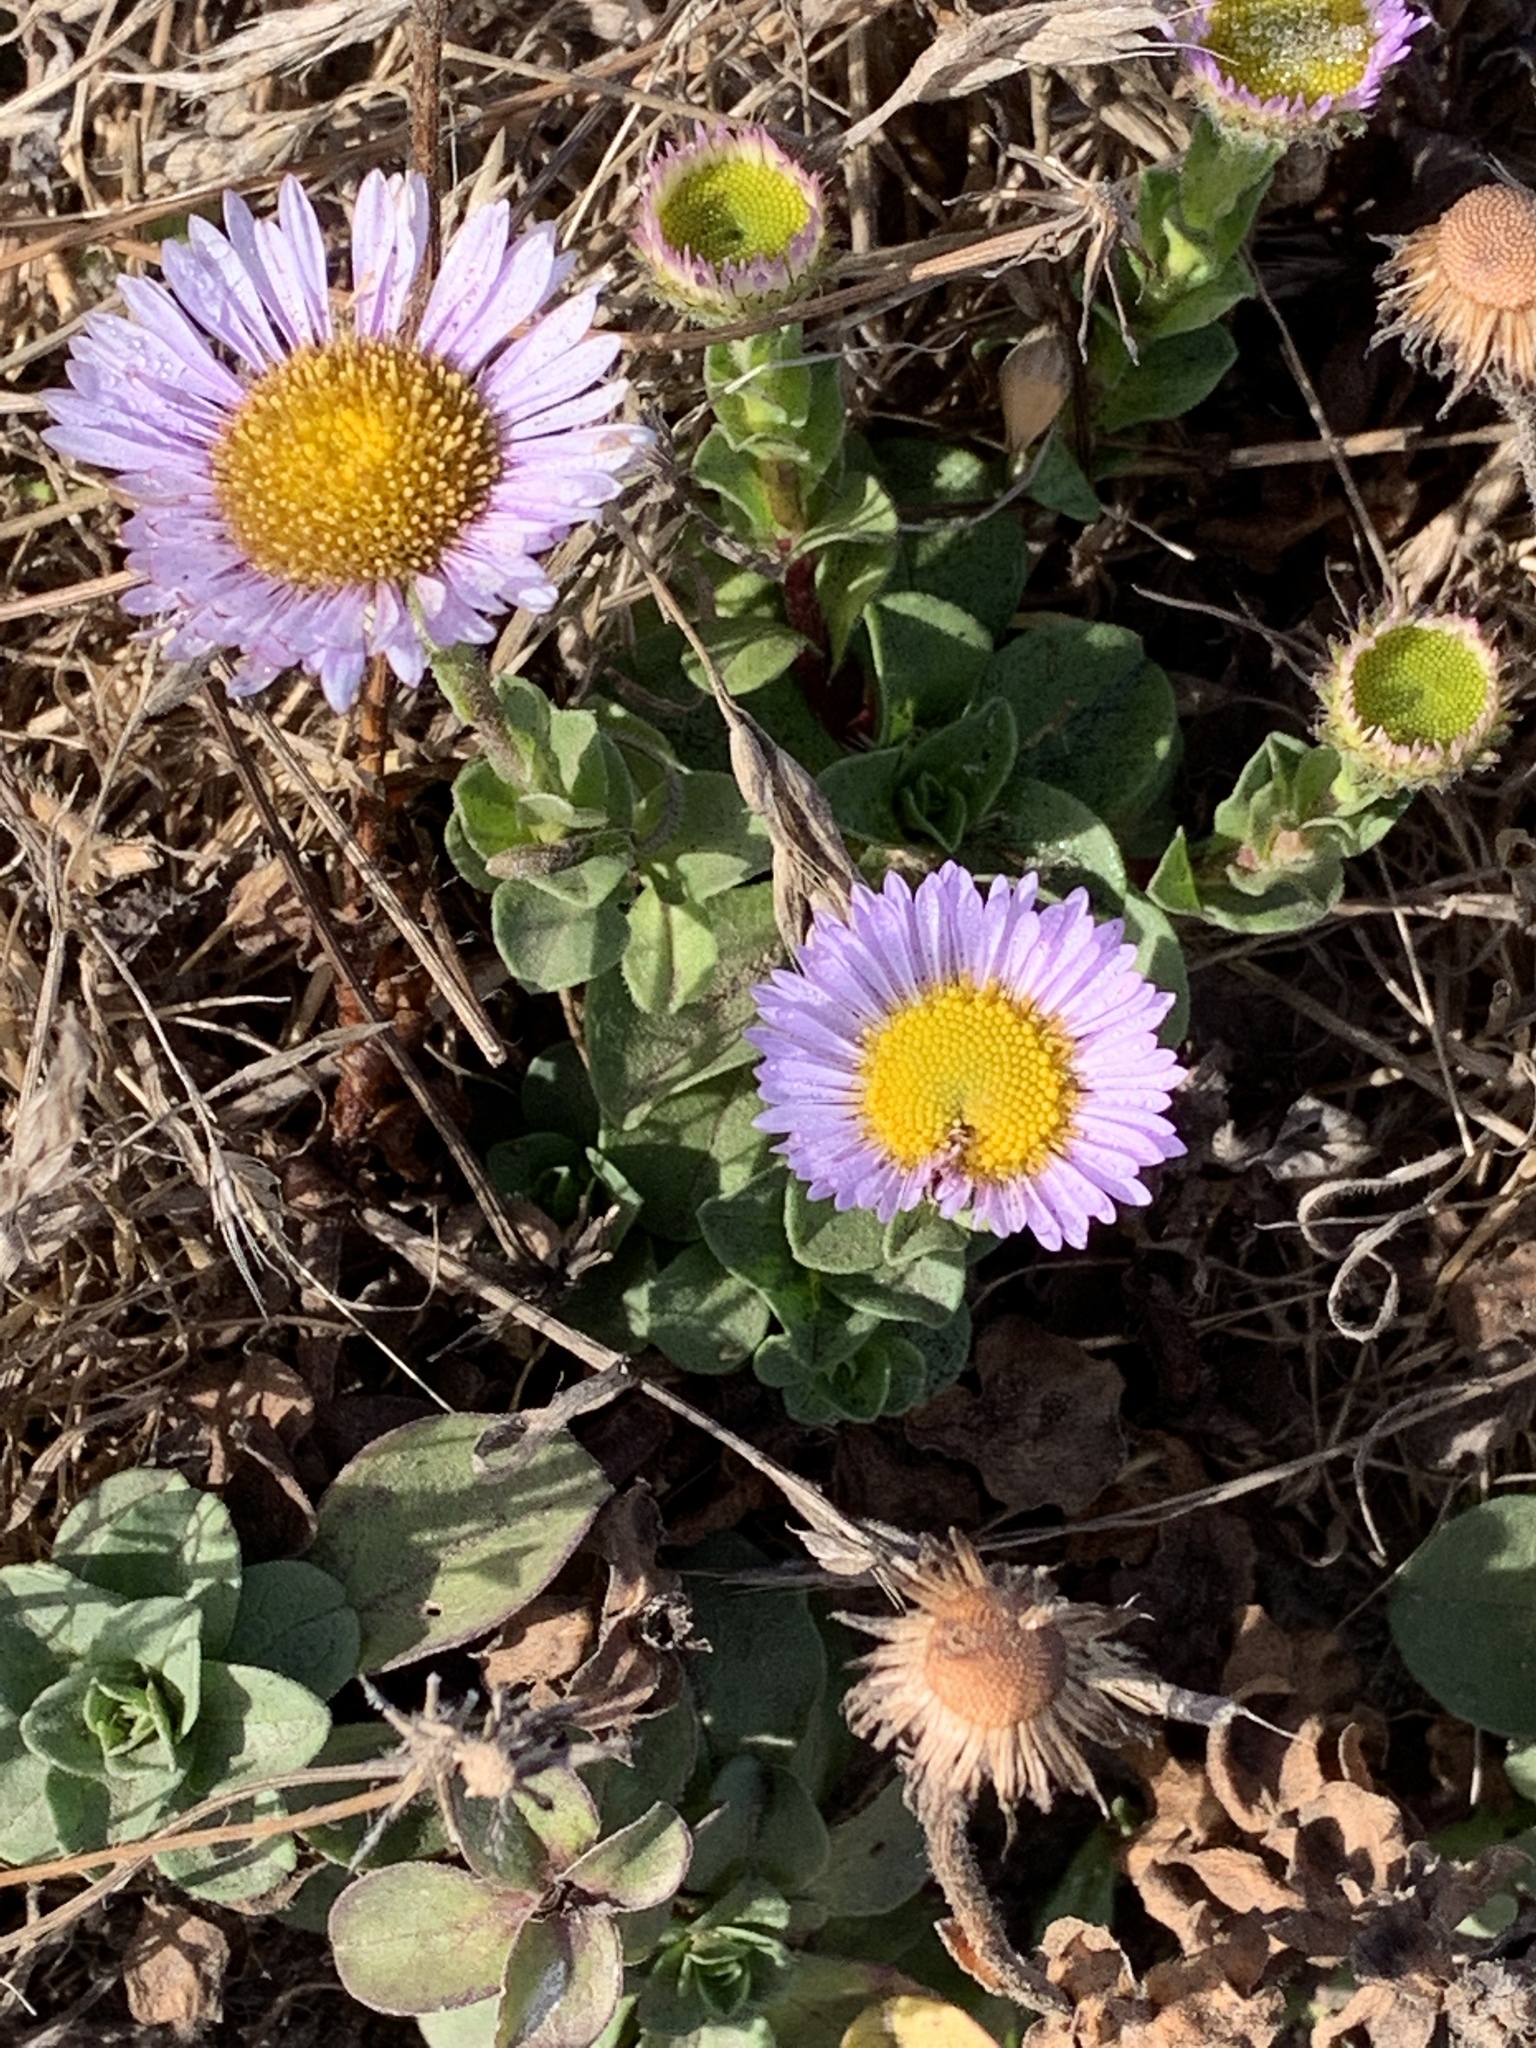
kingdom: Plantae
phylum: Tracheophyta
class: Magnoliopsida
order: Asterales
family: Asteraceae
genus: Erigeron
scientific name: Erigeron glaucus
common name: Seaside daisy
